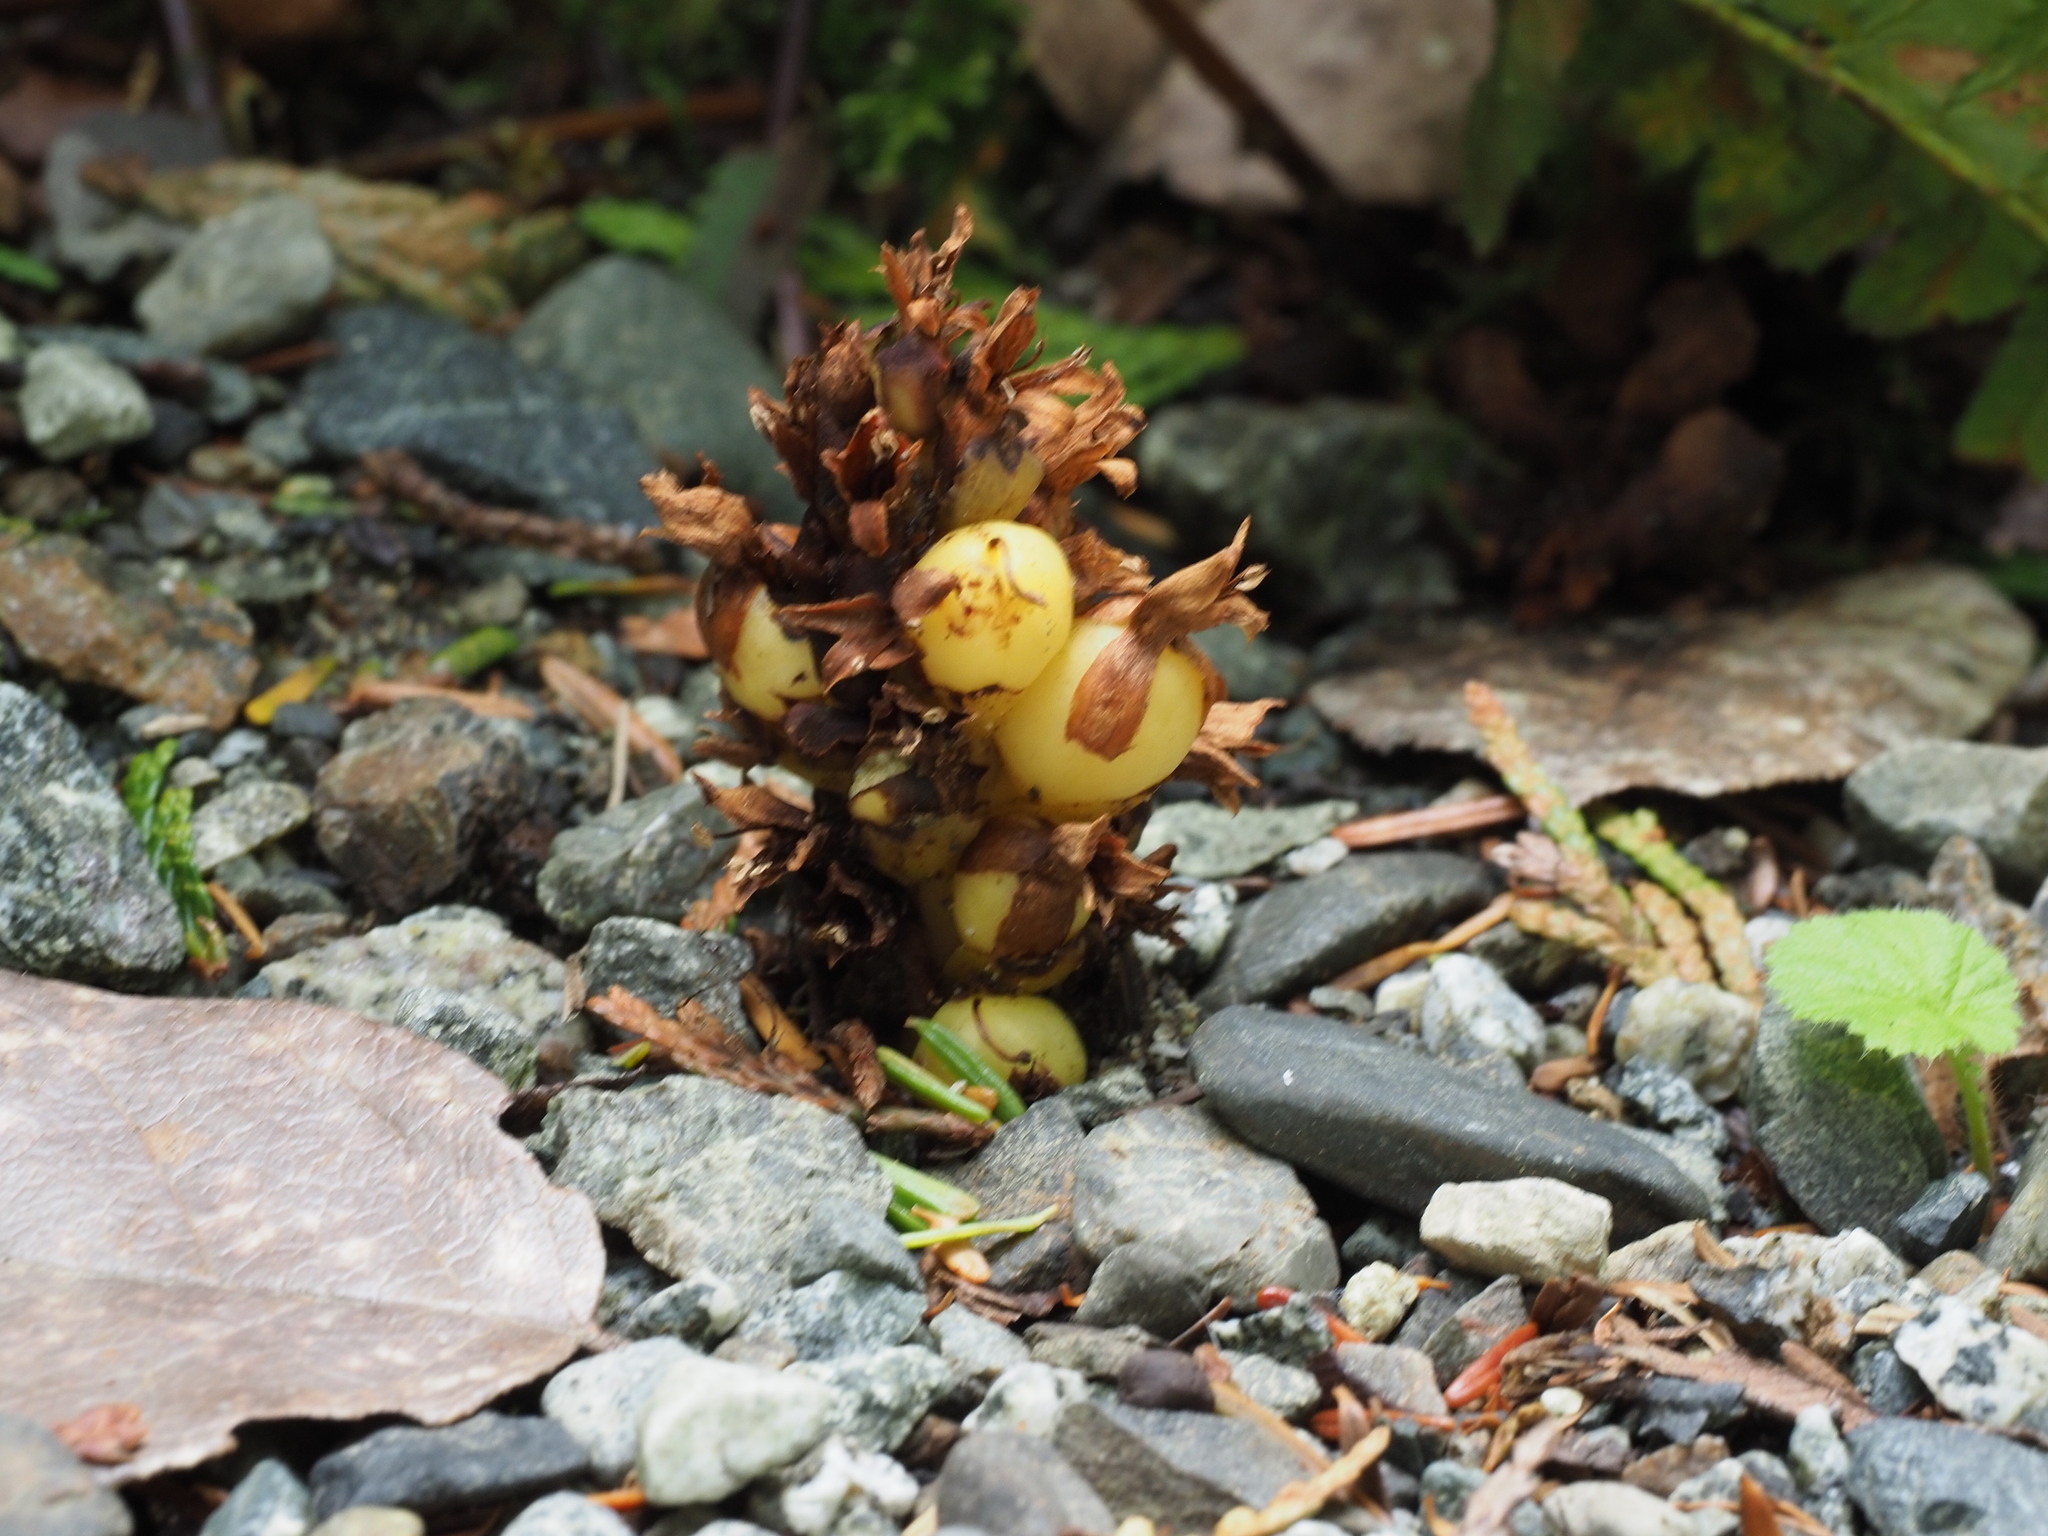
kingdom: Plantae
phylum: Tracheophyta
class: Magnoliopsida
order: Lamiales
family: Orobanchaceae
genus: Kopsiopsis
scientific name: Kopsiopsis hookeri
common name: Hooker's groundcone
